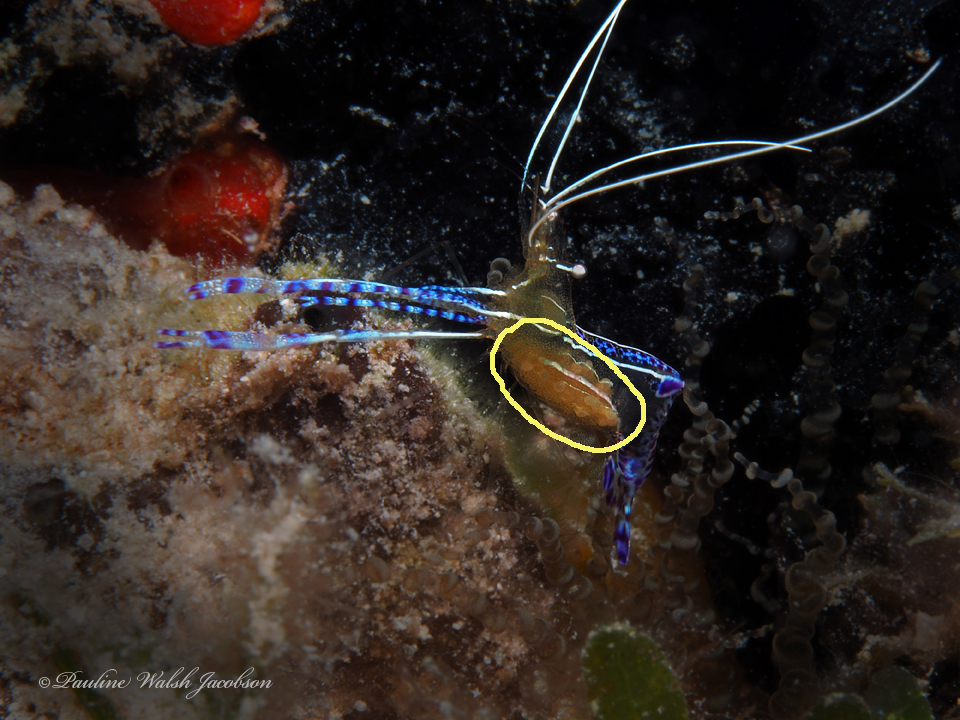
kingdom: Animalia
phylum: Arthropoda
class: Malacostraca
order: Decapoda
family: Palaemonidae
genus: Ancylomenes
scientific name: Ancylomenes pedersoni
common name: Pederson's cleaning shrimp
